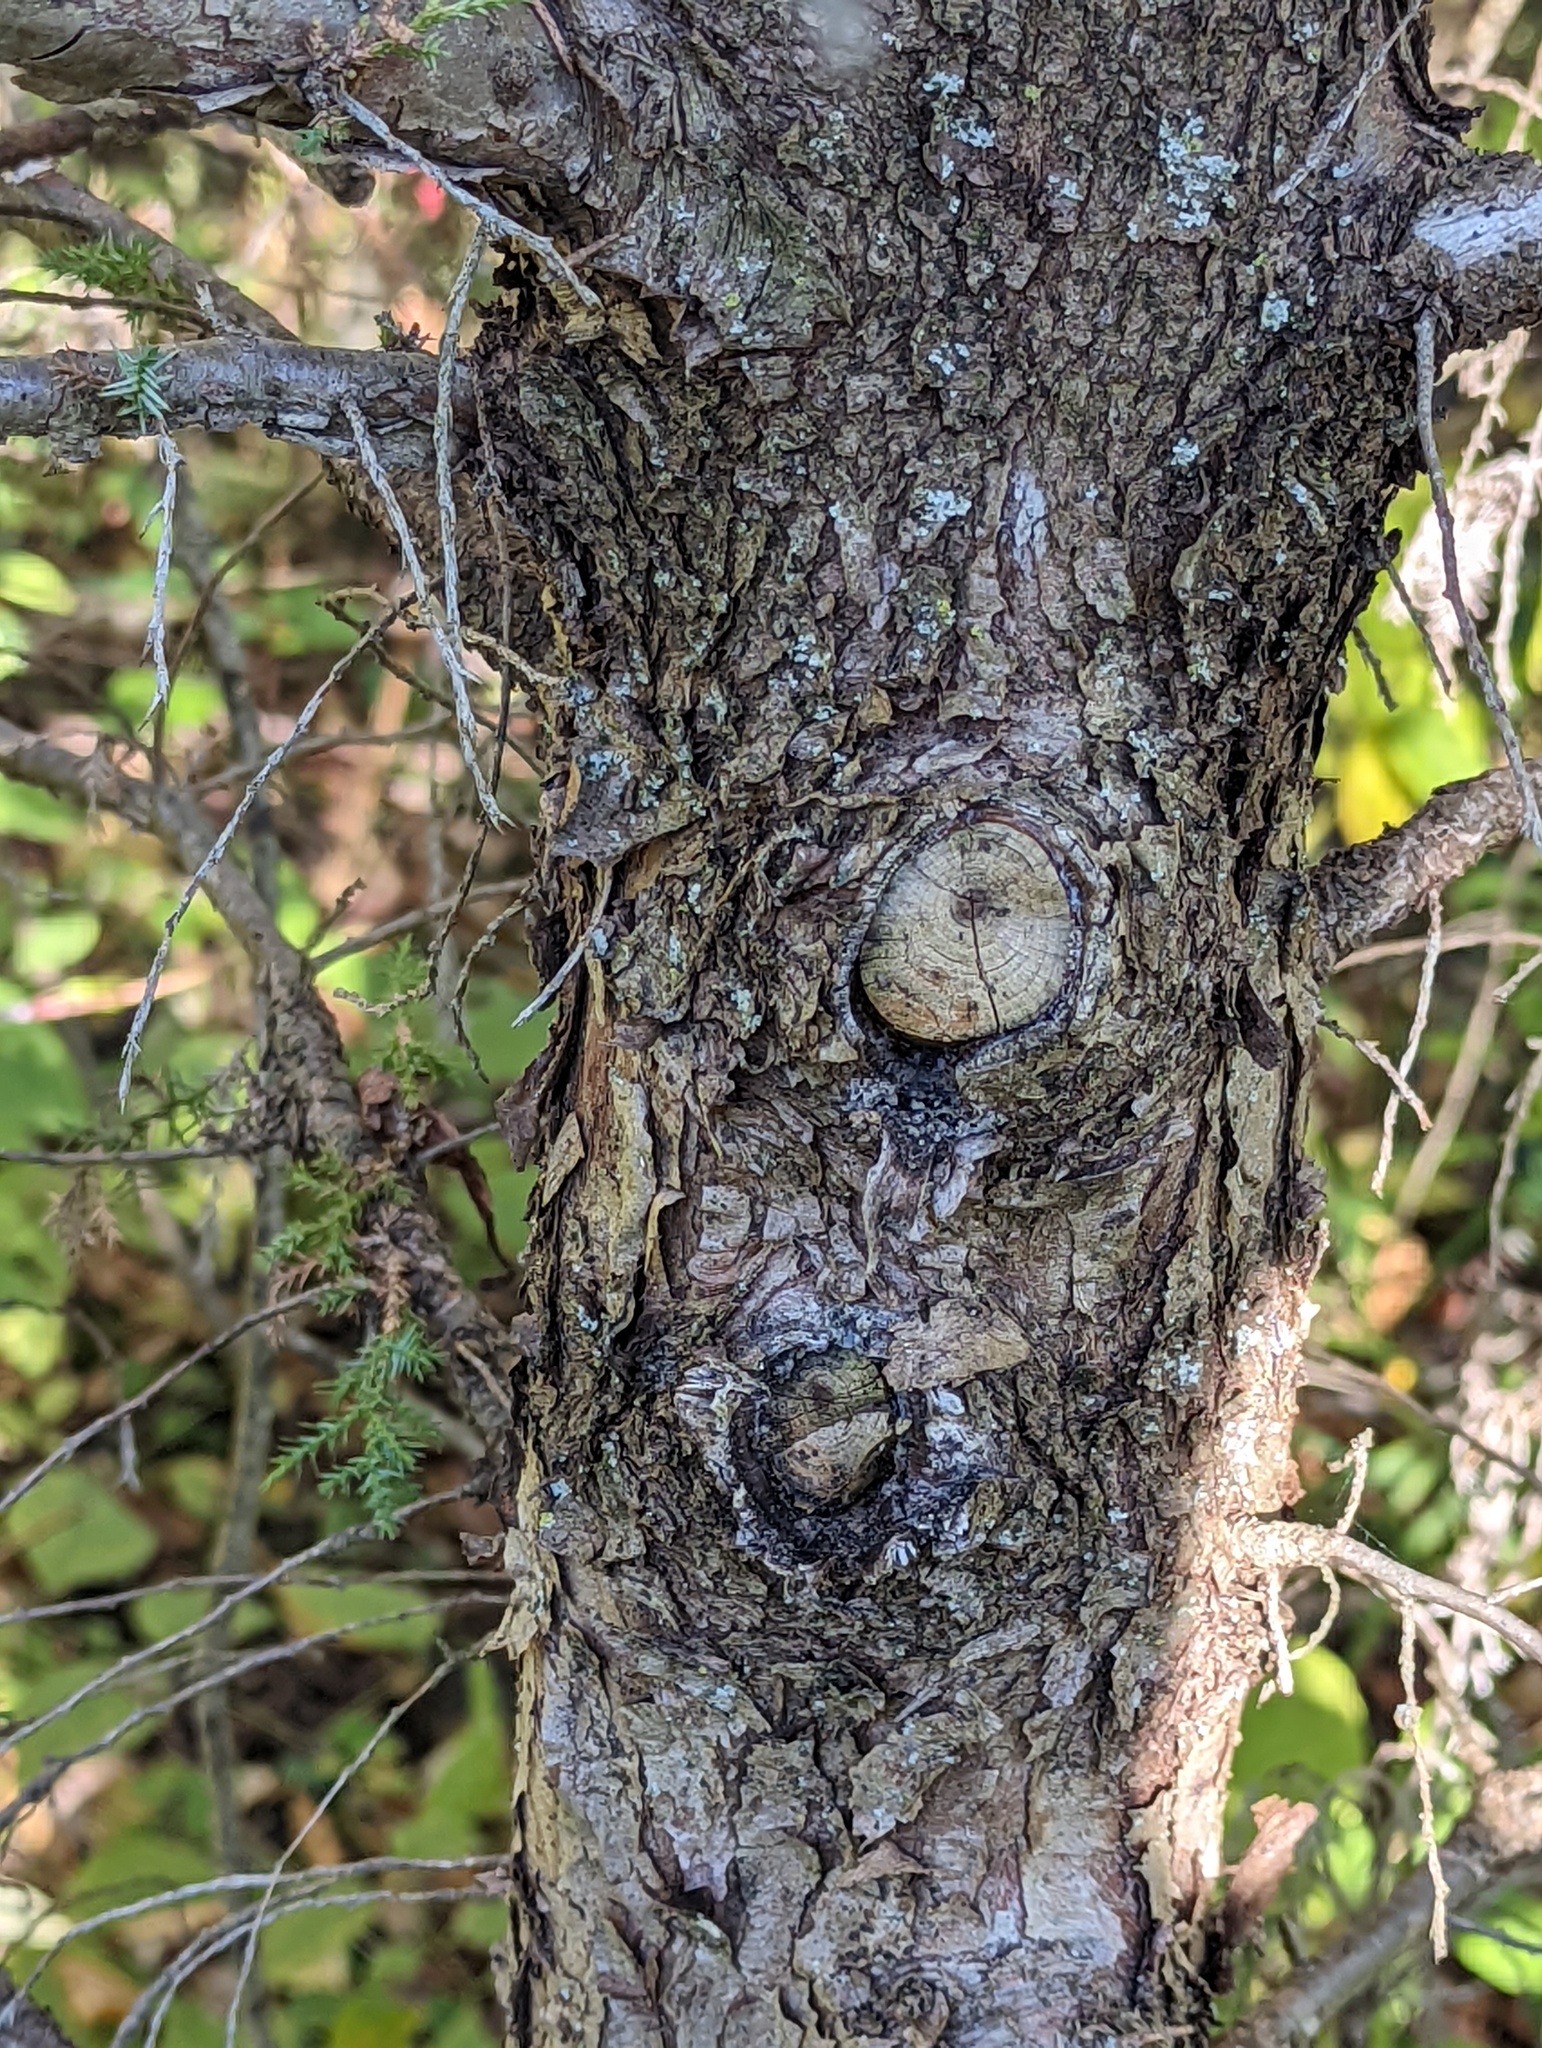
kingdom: Plantae
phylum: Tracheophyta
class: Pinopsida
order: Pinales
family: Cupressaceae
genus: Juniperus
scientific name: Juniperus virginiana
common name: Red juniper
